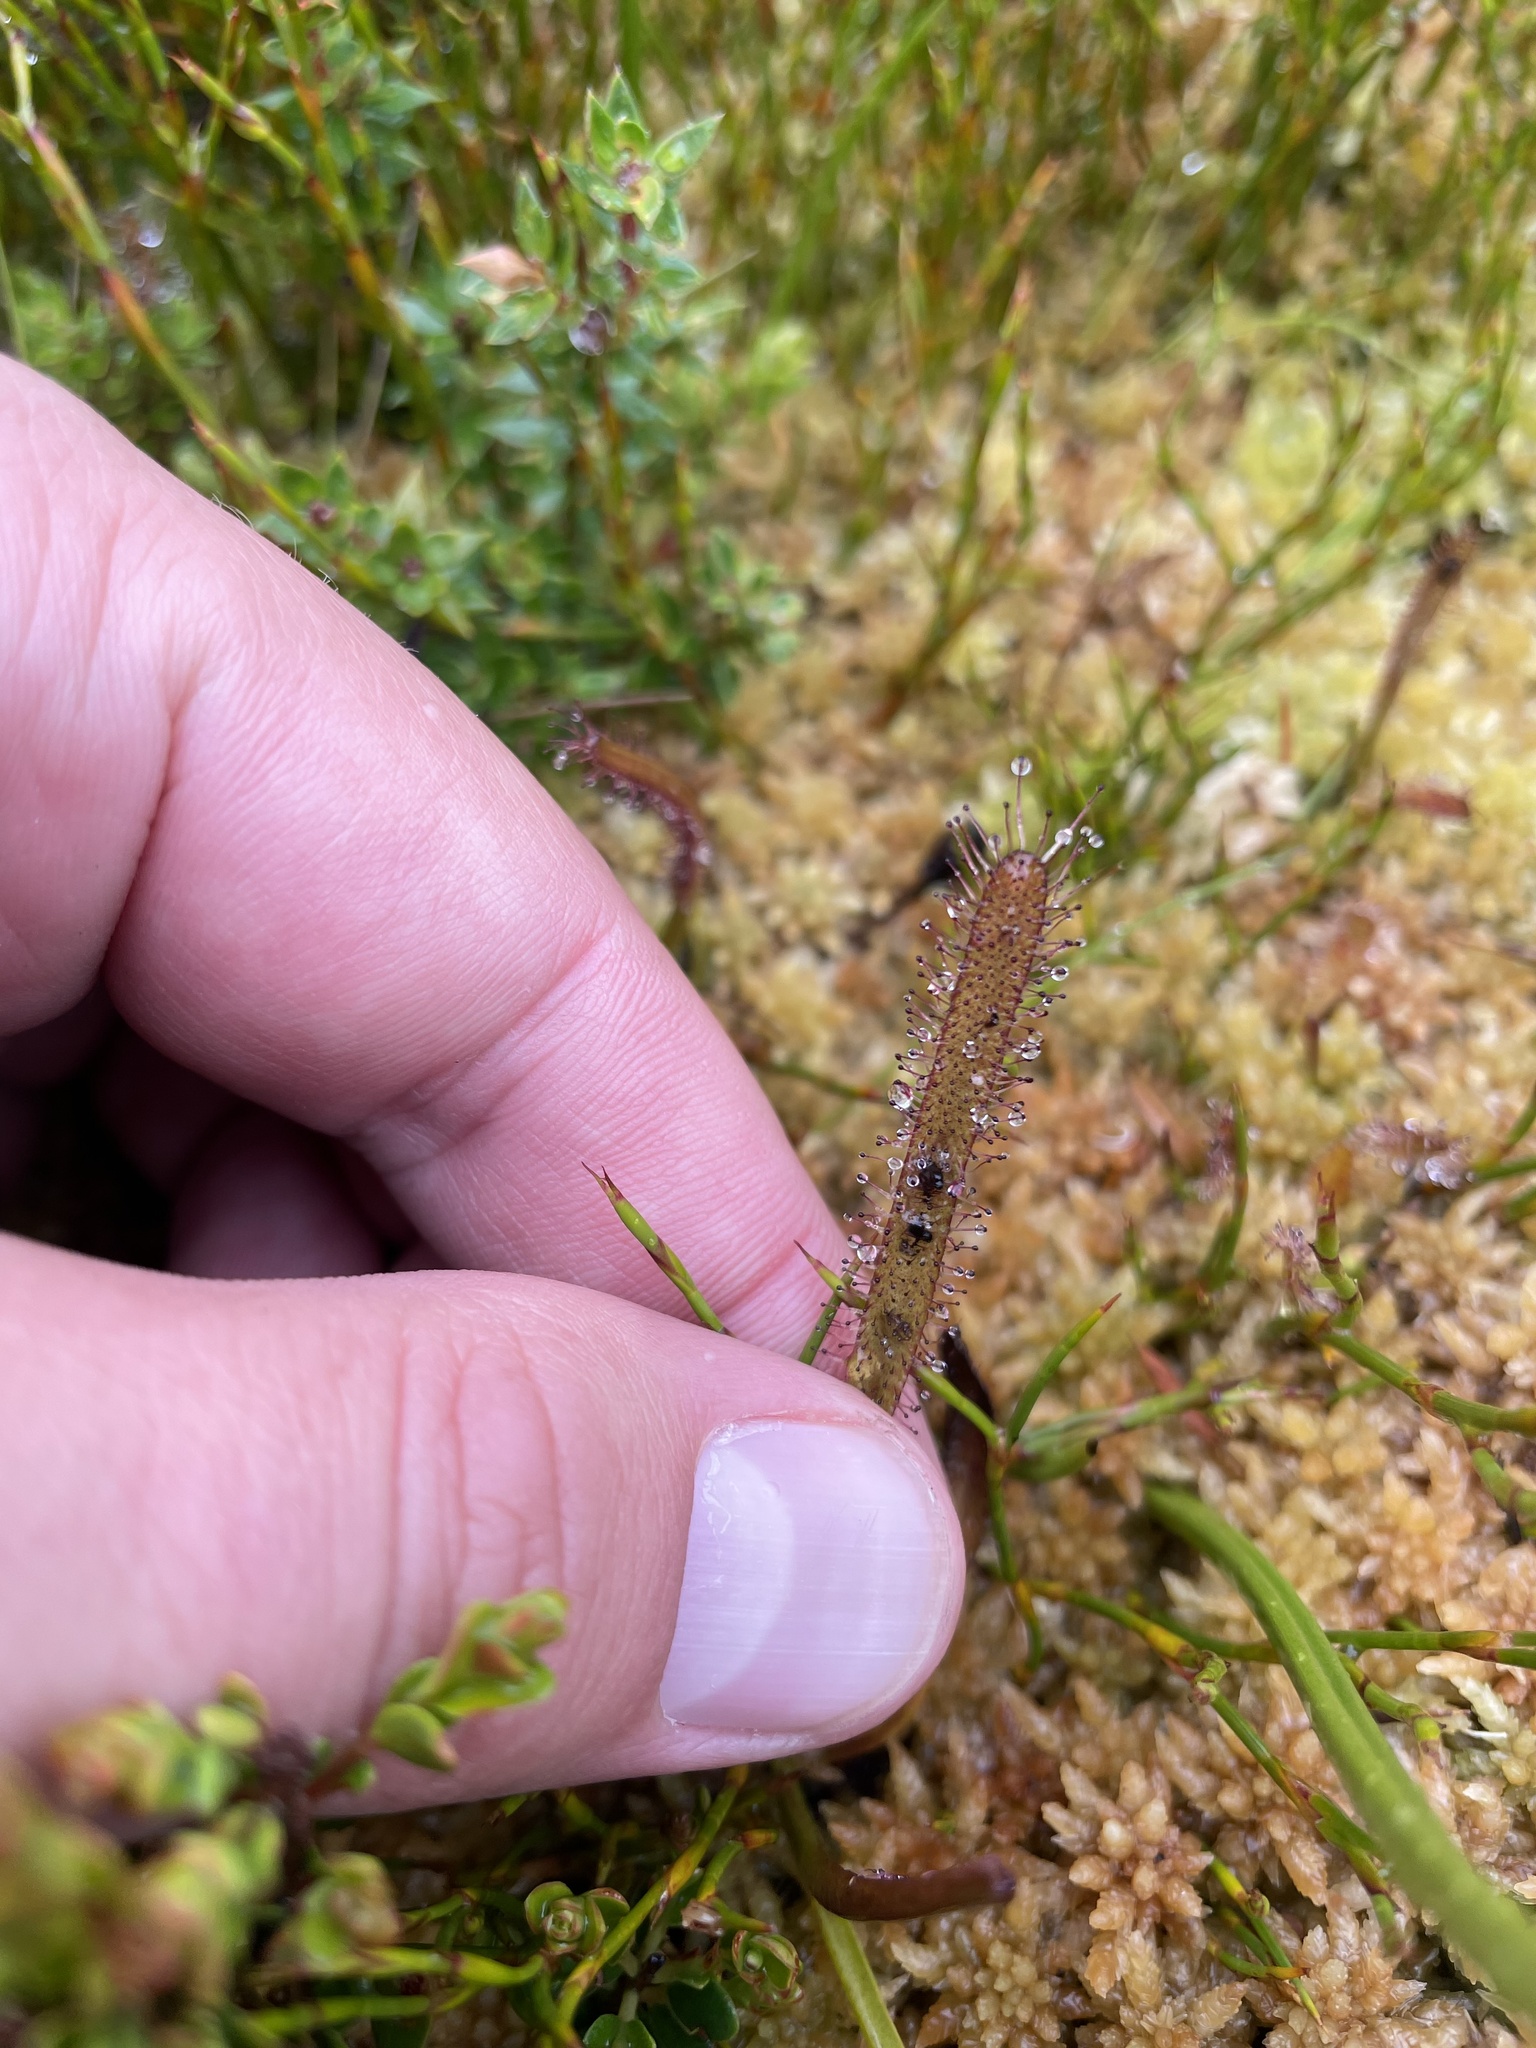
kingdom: Plantae
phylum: Tracheophyta
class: Magnoliopsida
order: Caryophyllales
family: Droseraceae
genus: Drosera
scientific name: Drosera arcturi
